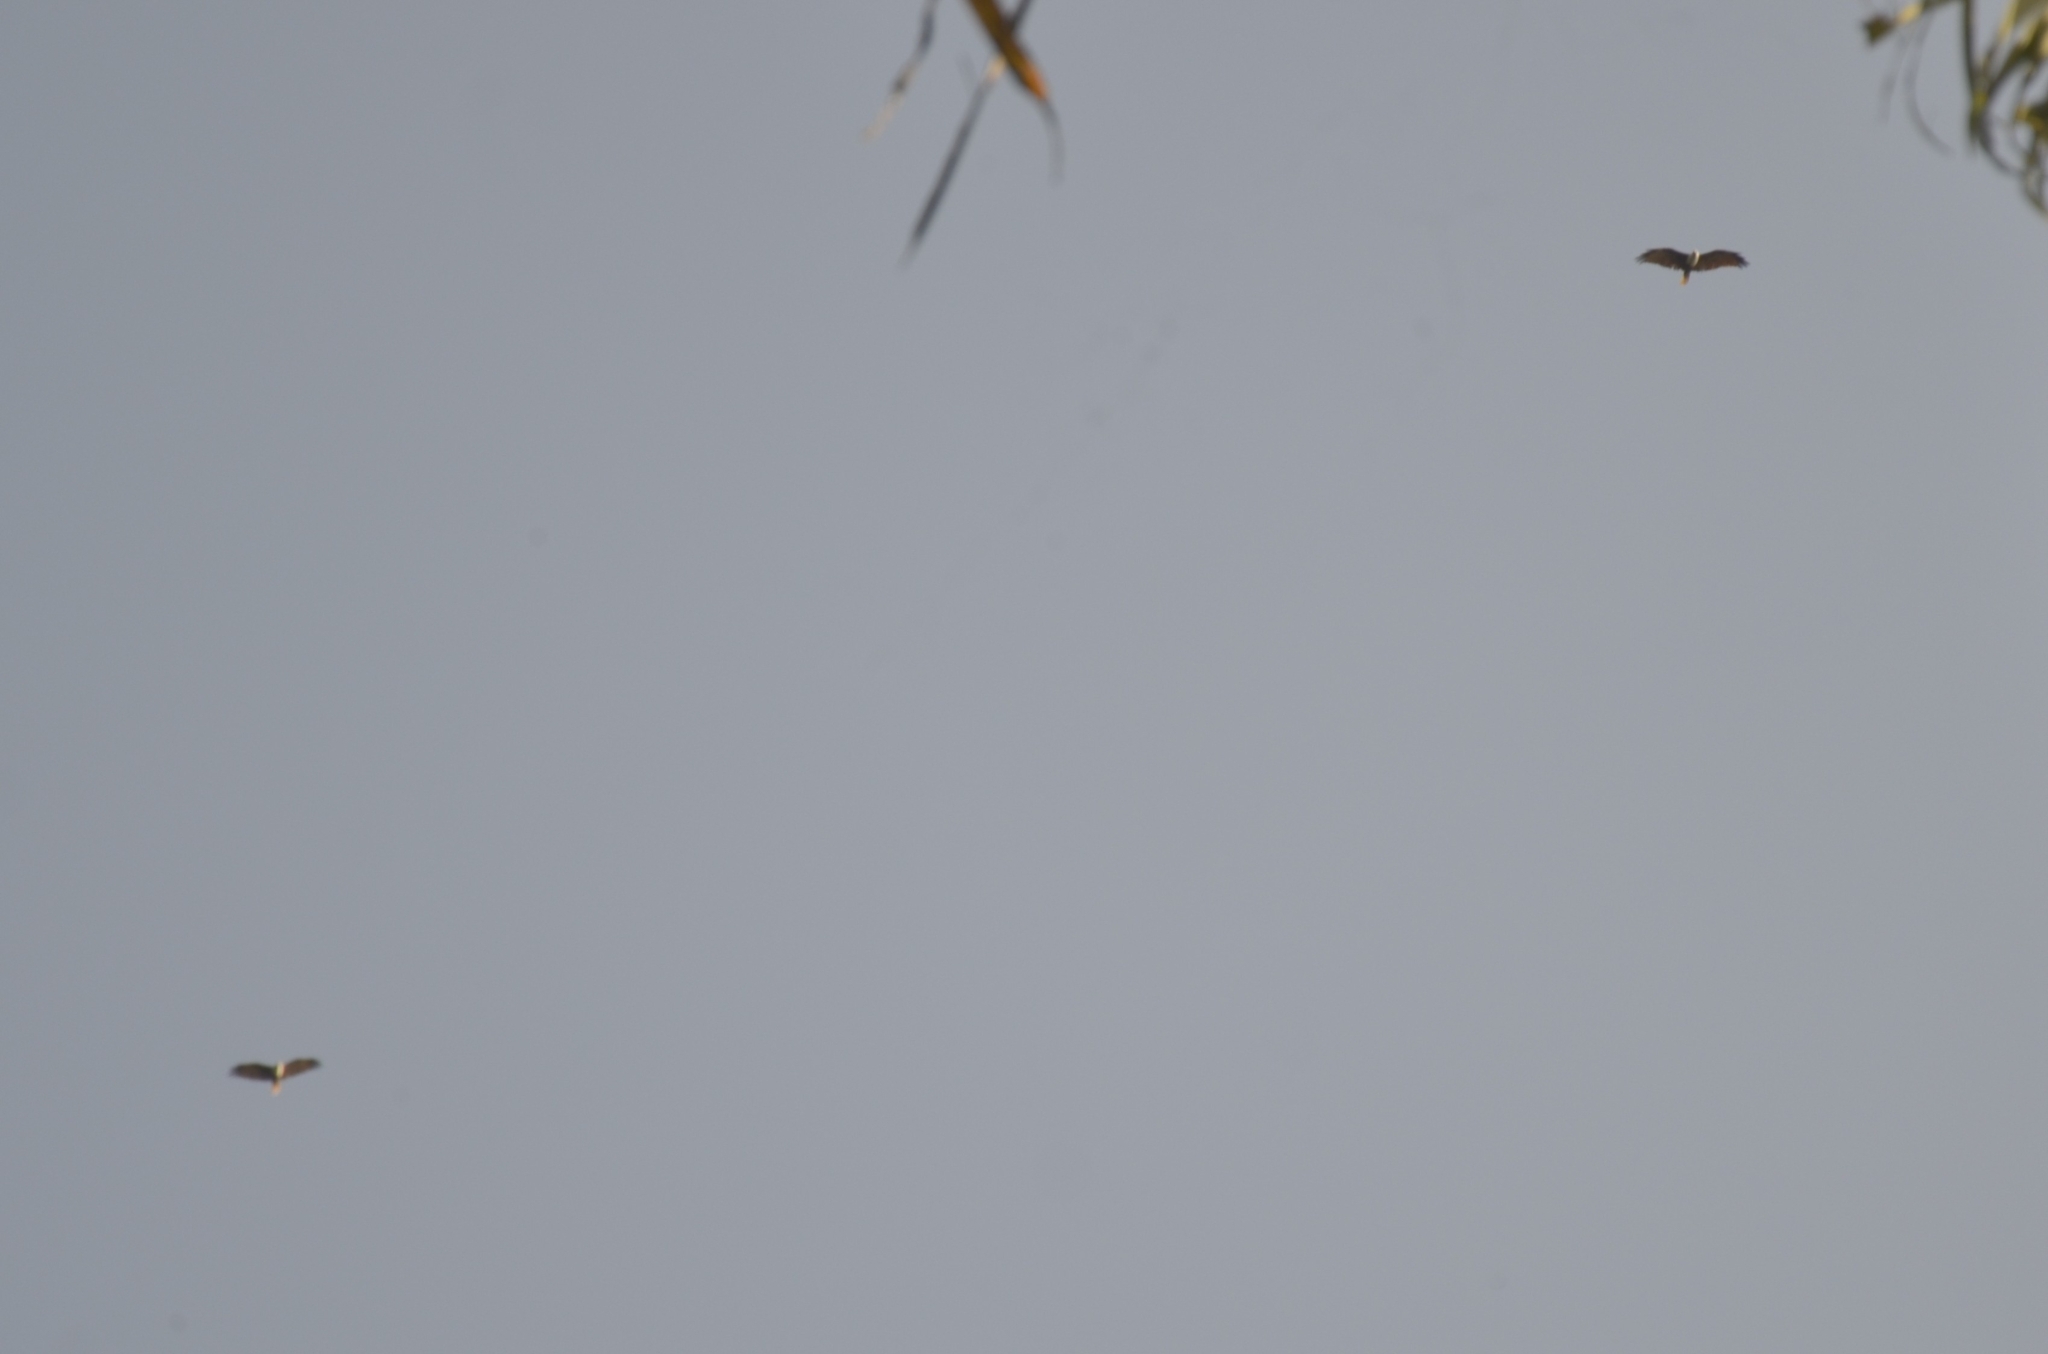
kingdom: Animalia
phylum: Chordata
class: Aves
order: Accipitriformes
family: Accipitridae
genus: Haliastur
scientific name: Haliastur indus
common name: Brahminy kite
